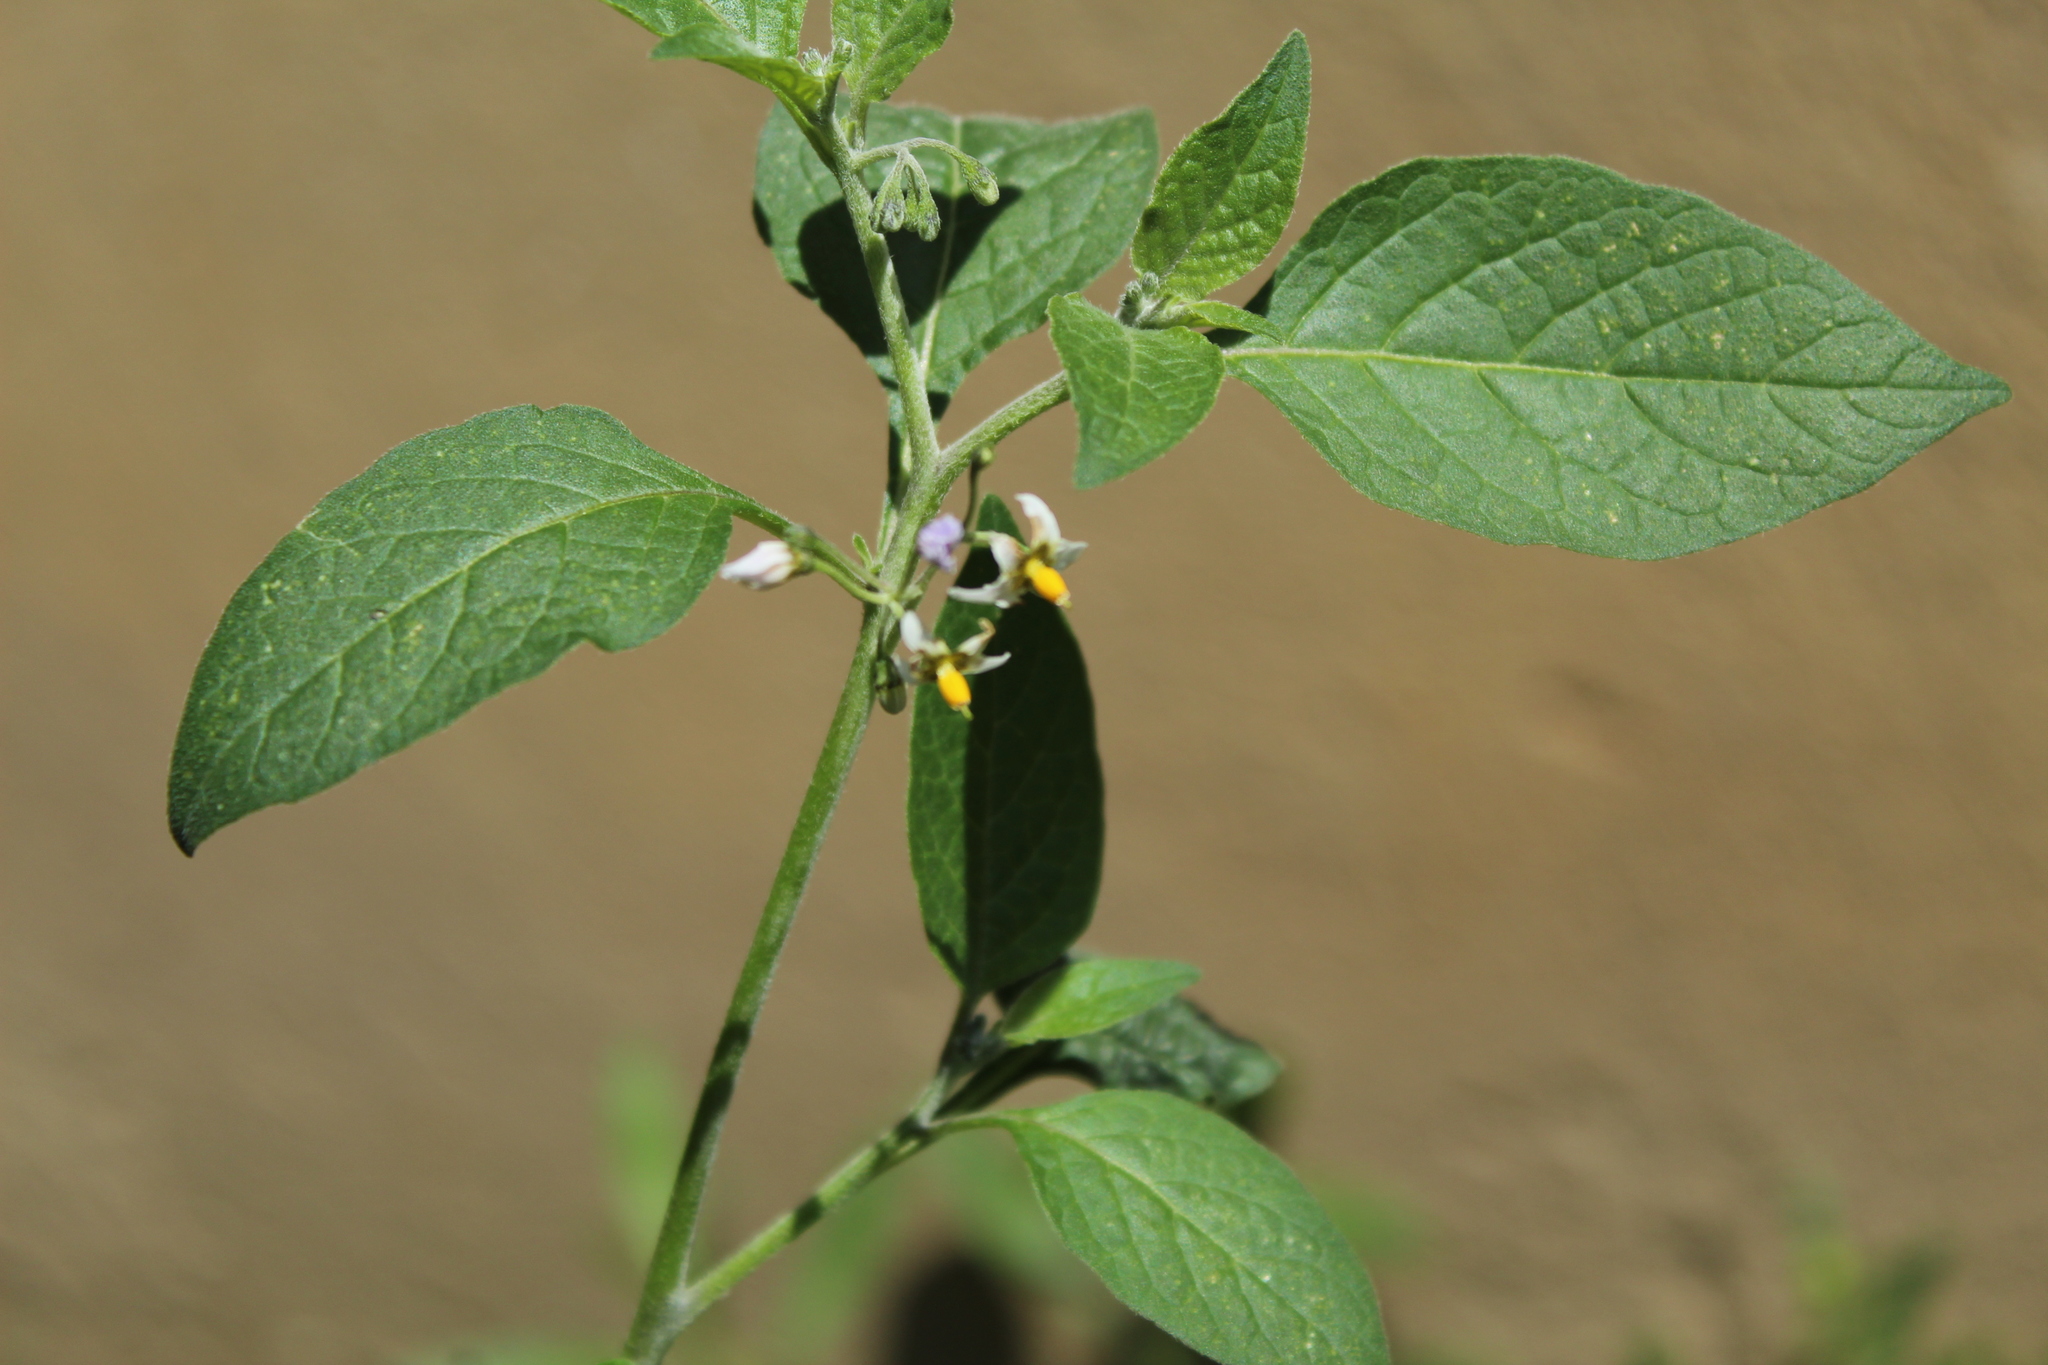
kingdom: Plantae
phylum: Tracheophyta
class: Magnoliopsida
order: Solanales
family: Solanaceae
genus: Solanum
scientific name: Solanum nigrescens
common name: Divine nightshade
